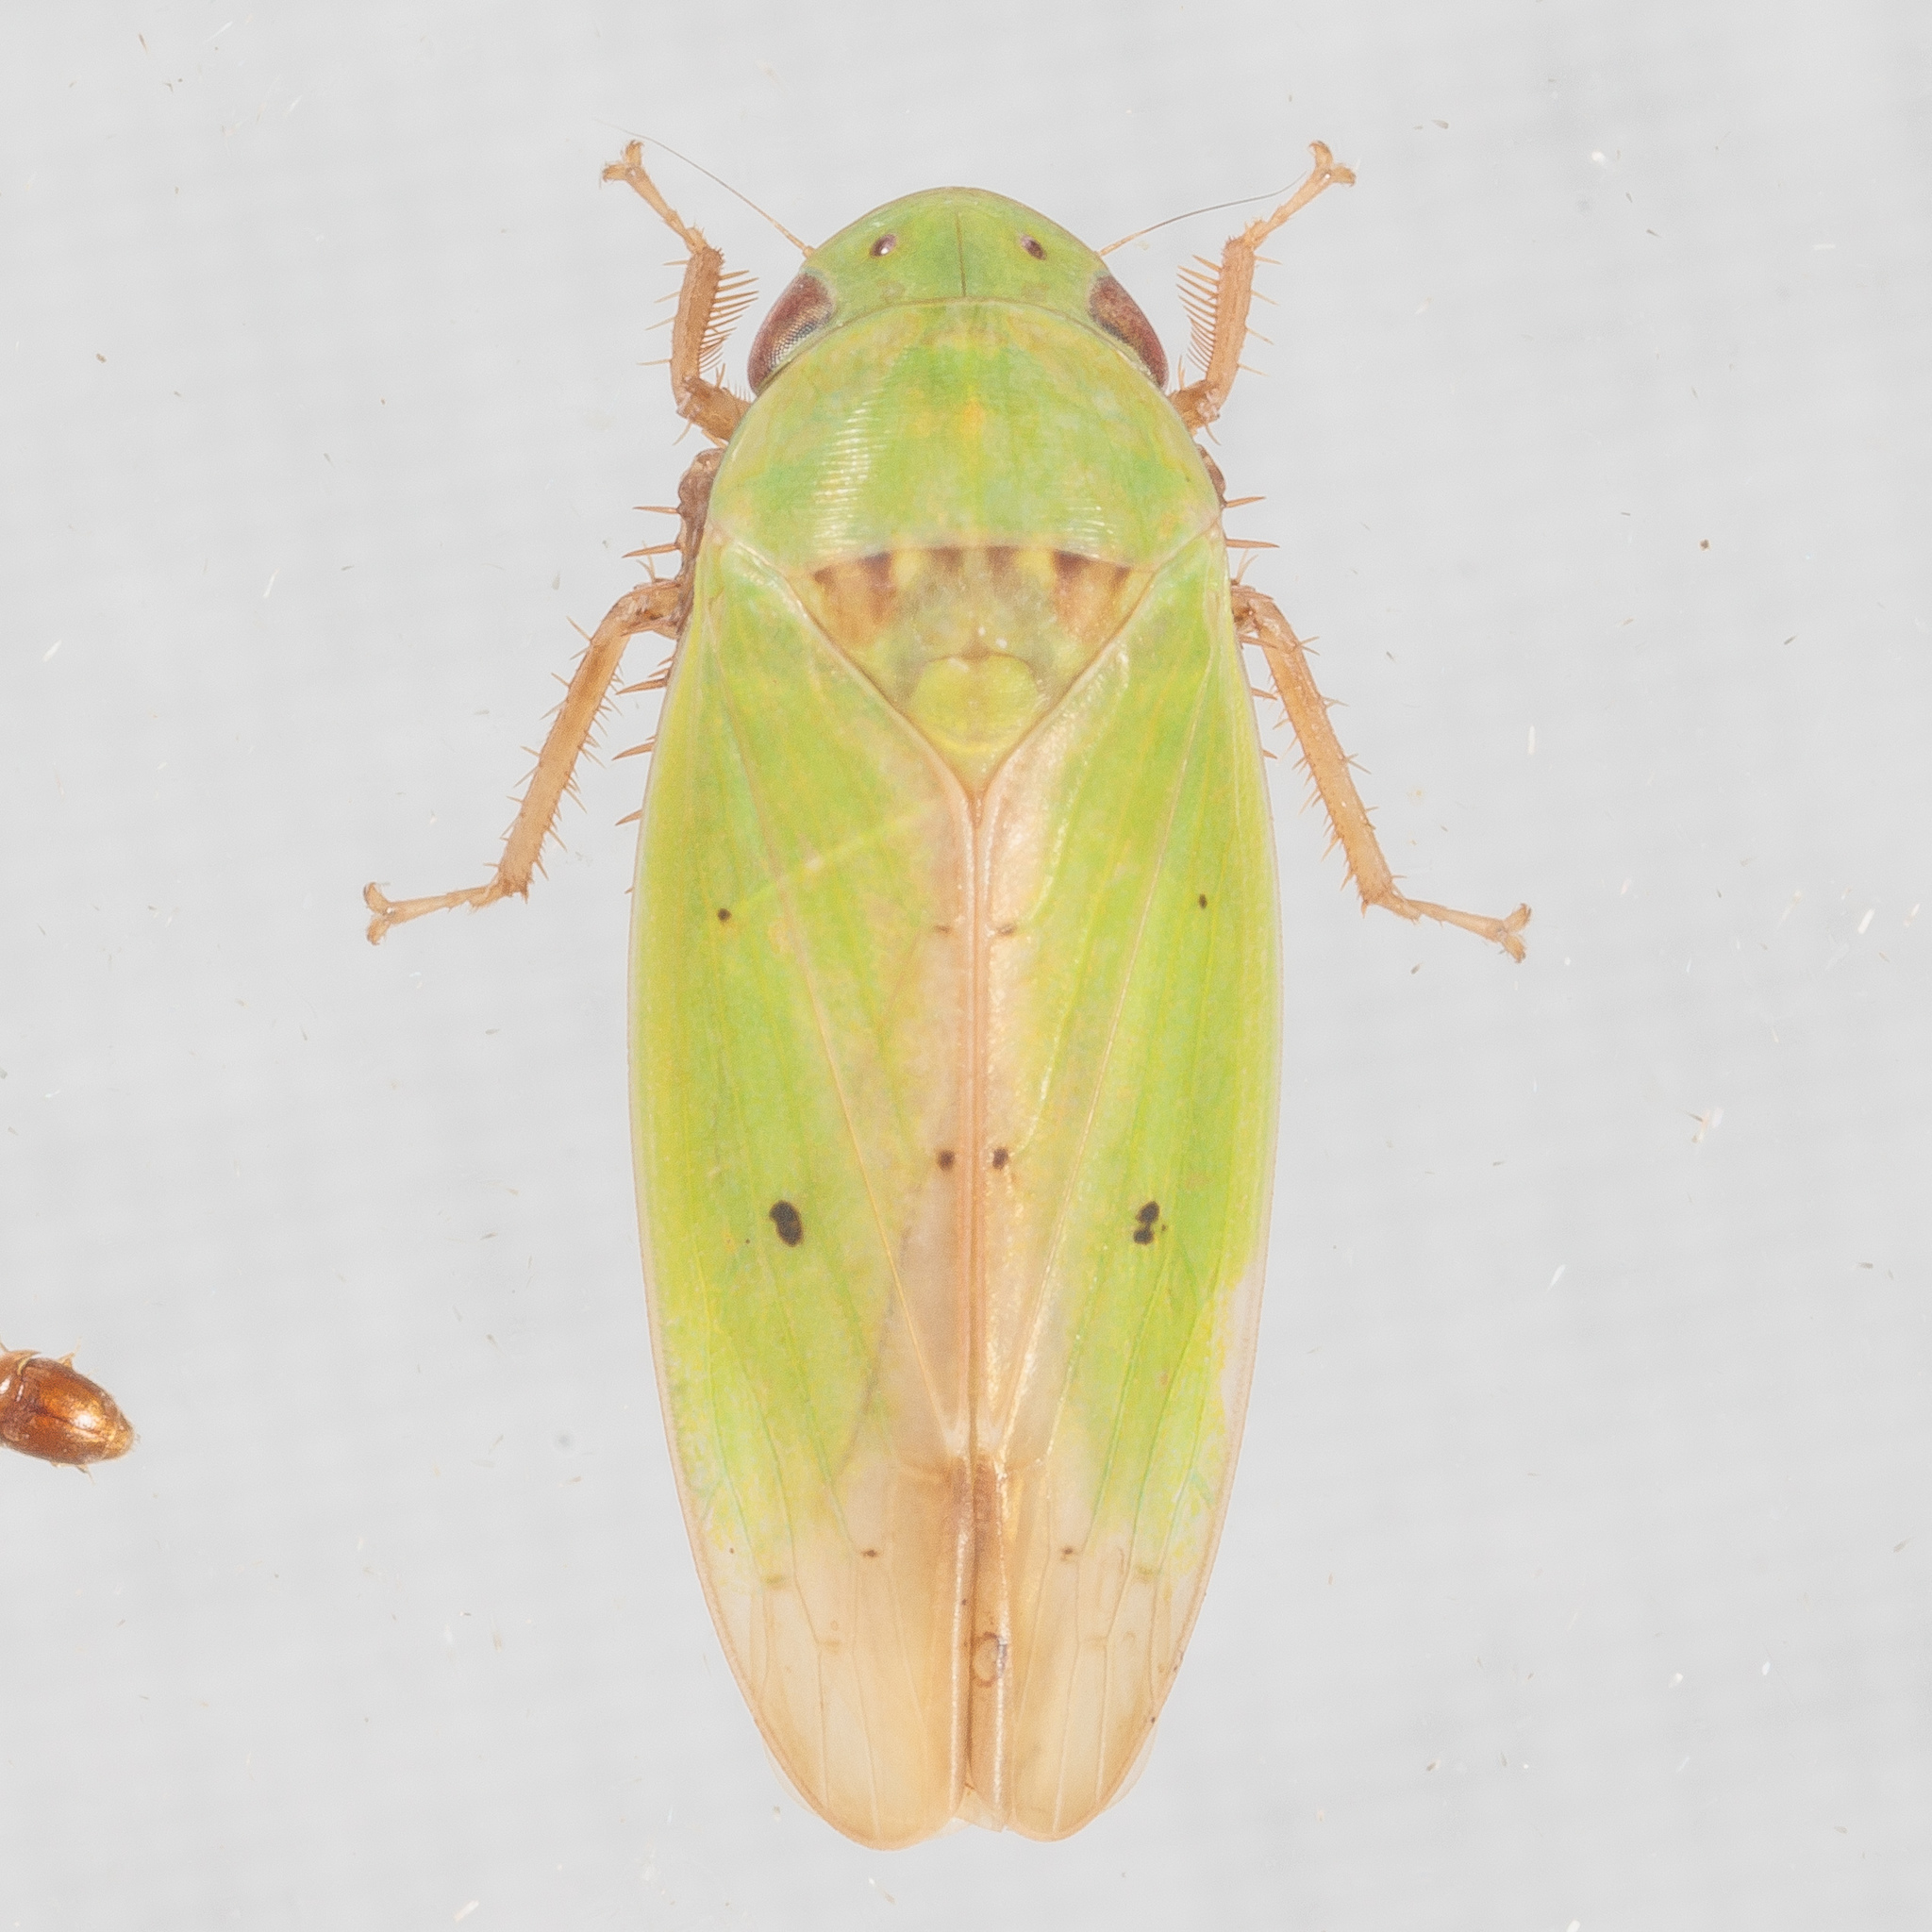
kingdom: Animalia
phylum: Arthropoda
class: Insecta
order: Hemiptera
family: Cicadellidae
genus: Ponana
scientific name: Ponana
